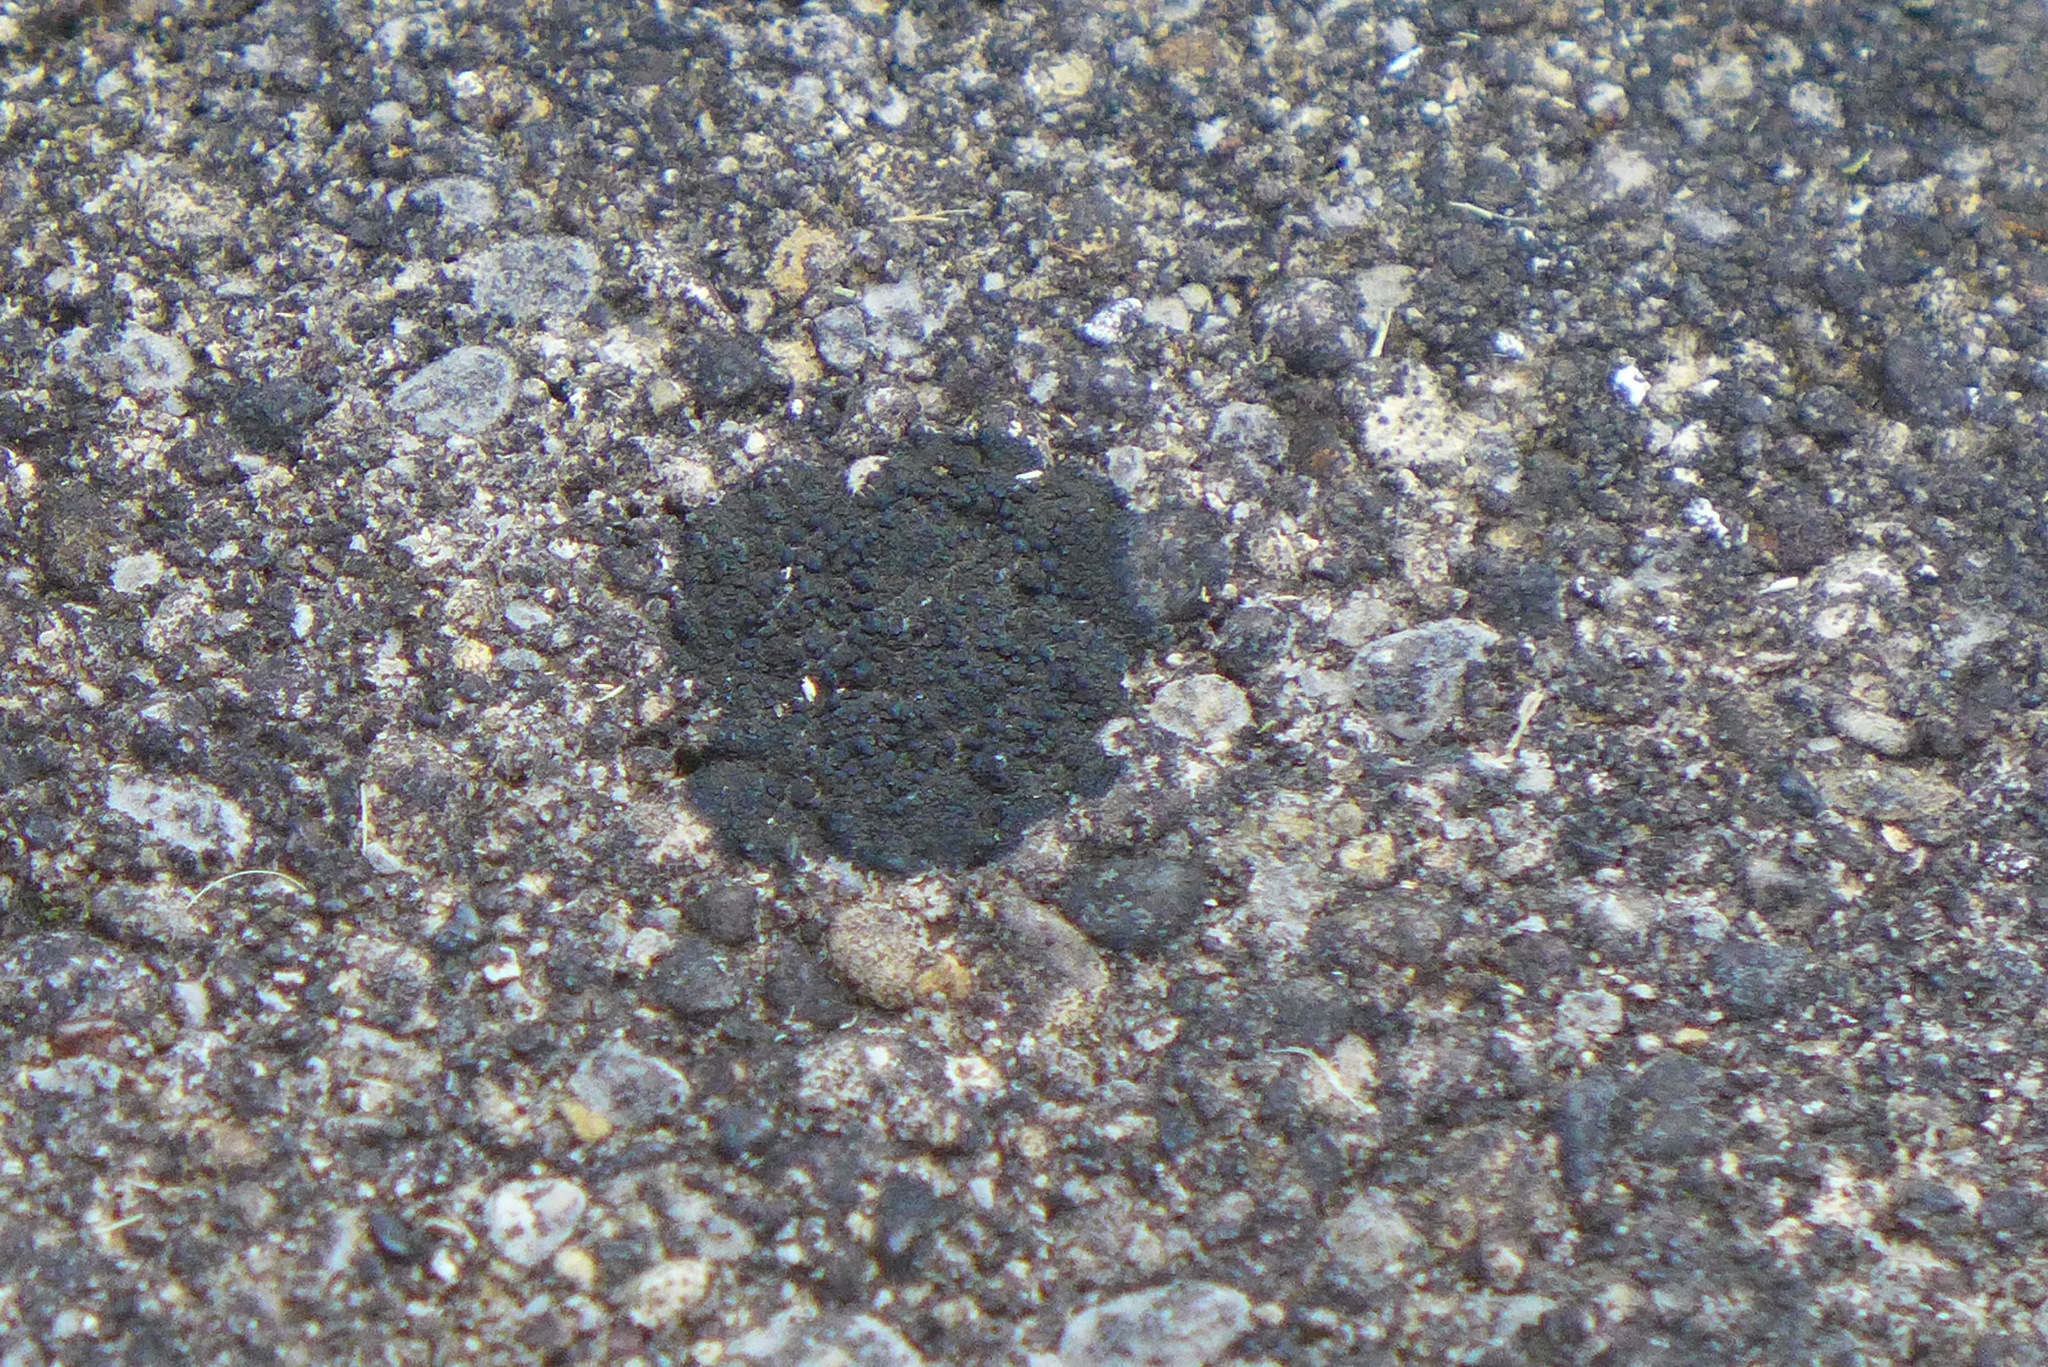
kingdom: Fungi
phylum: Ascomycota
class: Lecanoromycetes
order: Peltigerales
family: Placynthiaceae
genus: Placynthium
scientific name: Placynthium nigrum
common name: Blackthread lichen
